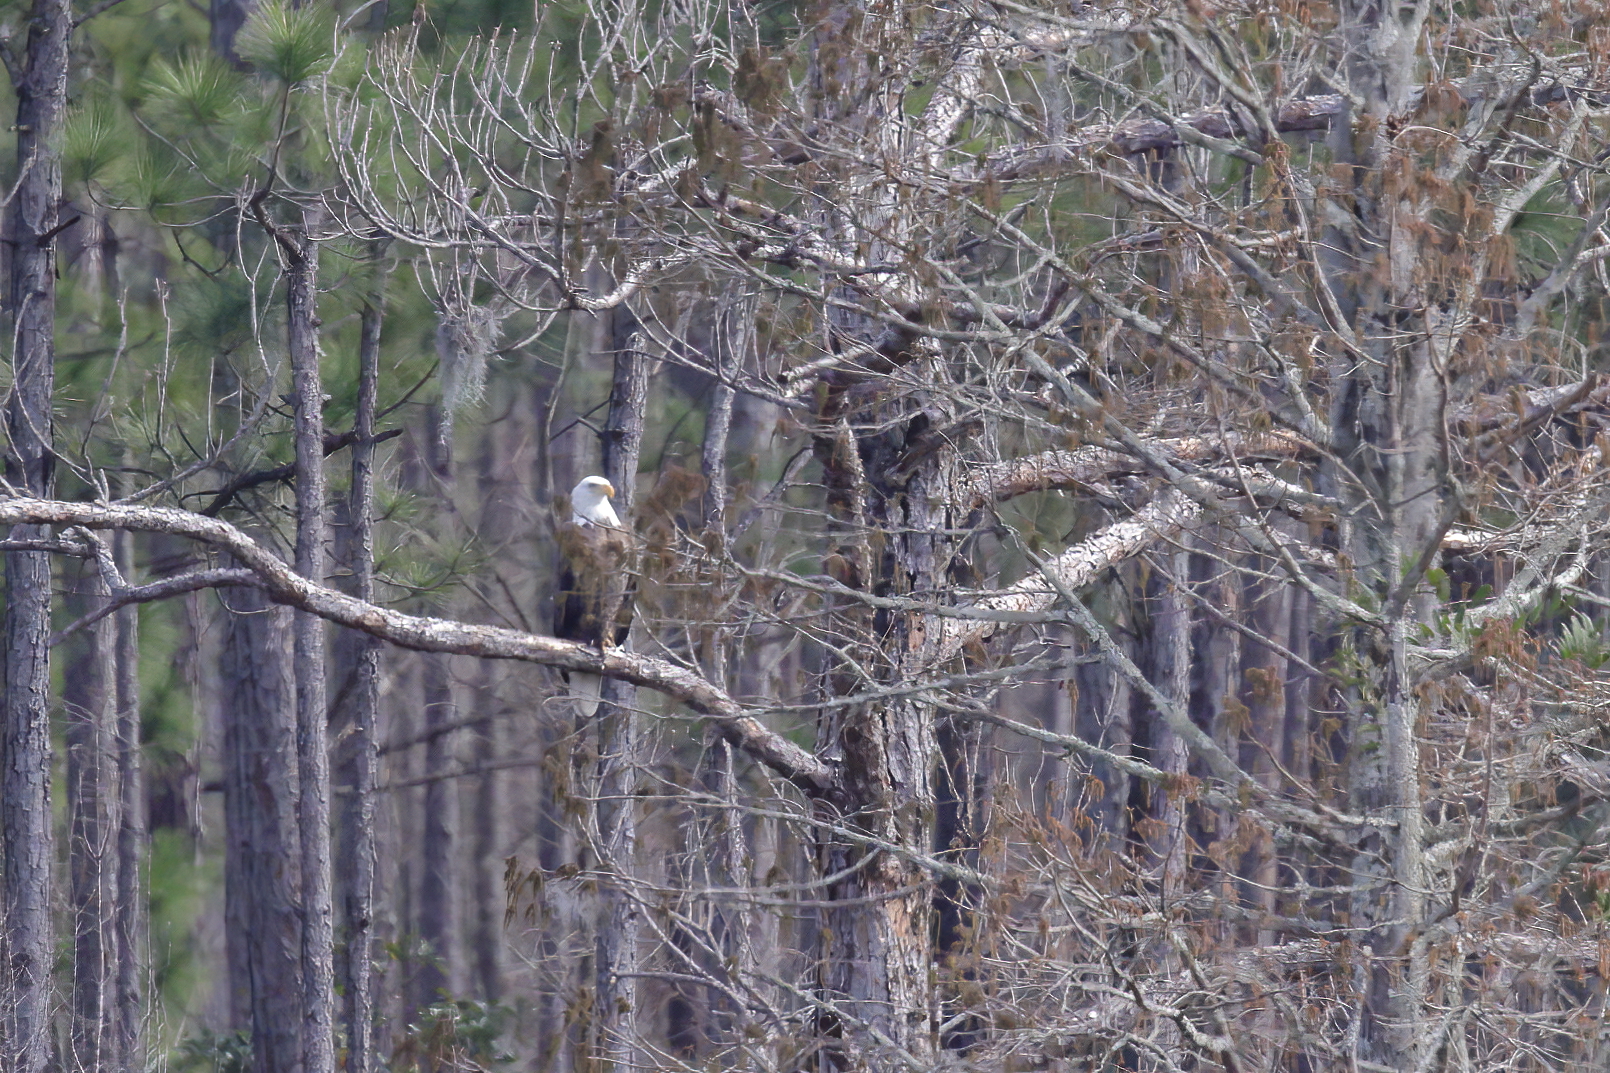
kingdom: Animalia
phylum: Chordata
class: Aves
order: Accipitriformes
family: Accipitridae
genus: Haliaeetus
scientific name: Haliaeetus leucocephalus
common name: Bald eagle
